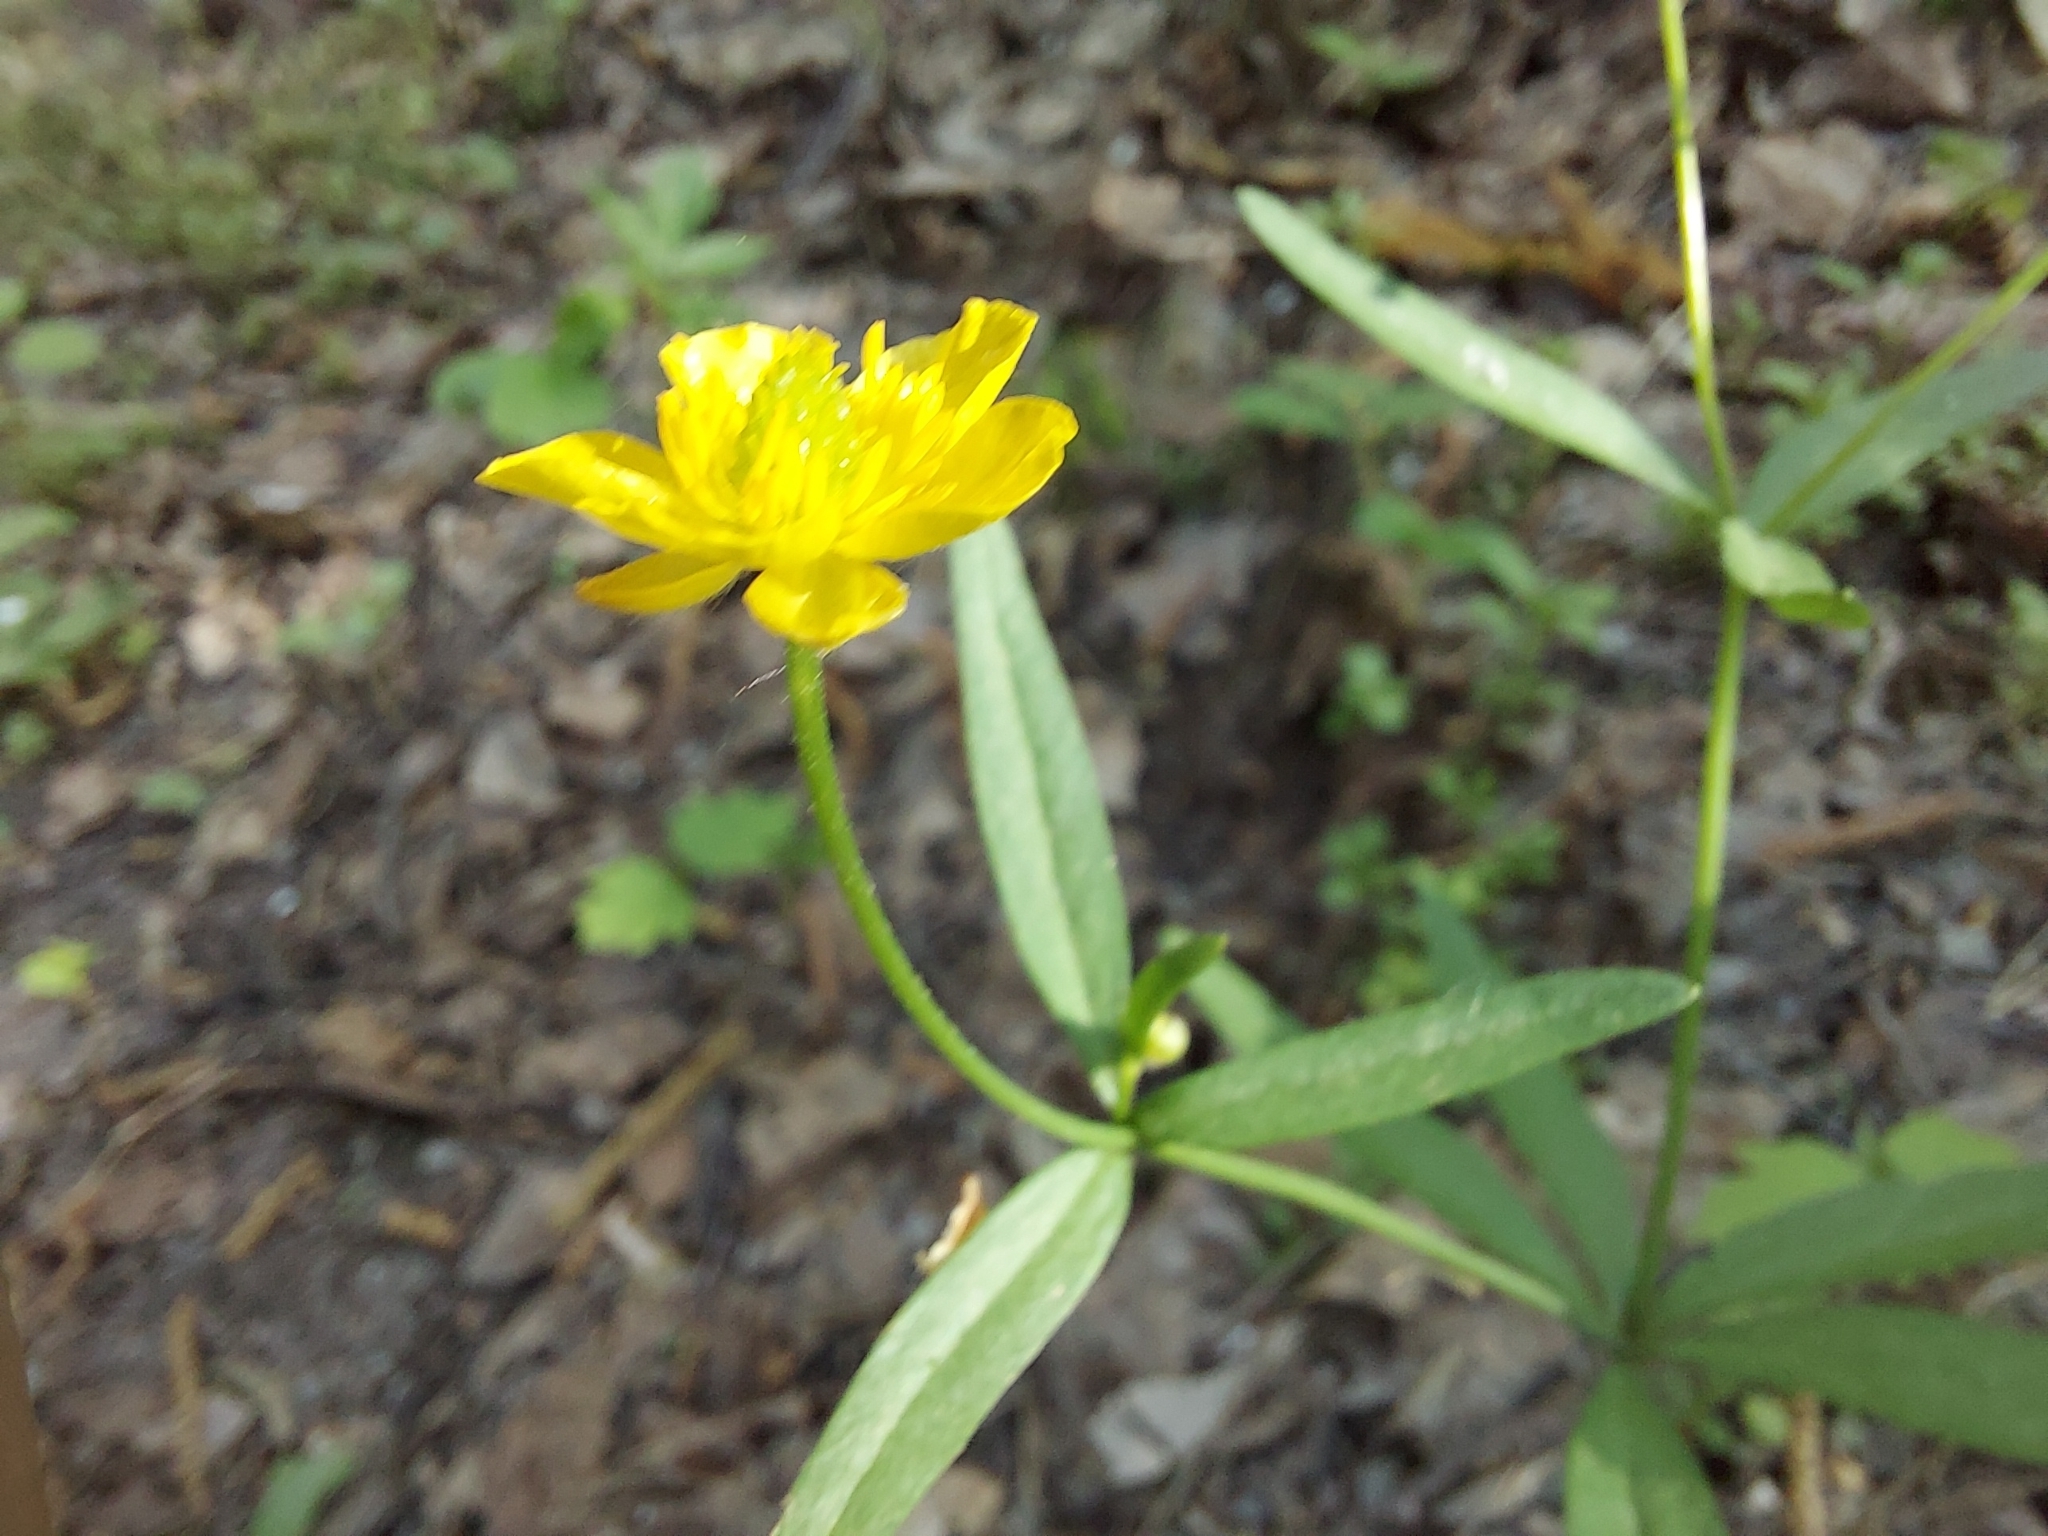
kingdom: Plantae
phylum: Tracheophyta
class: Magnoliopsida
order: Ranunculales
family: Ranunculaceae
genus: Ranunculus
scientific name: Ranunculus monophyllus
